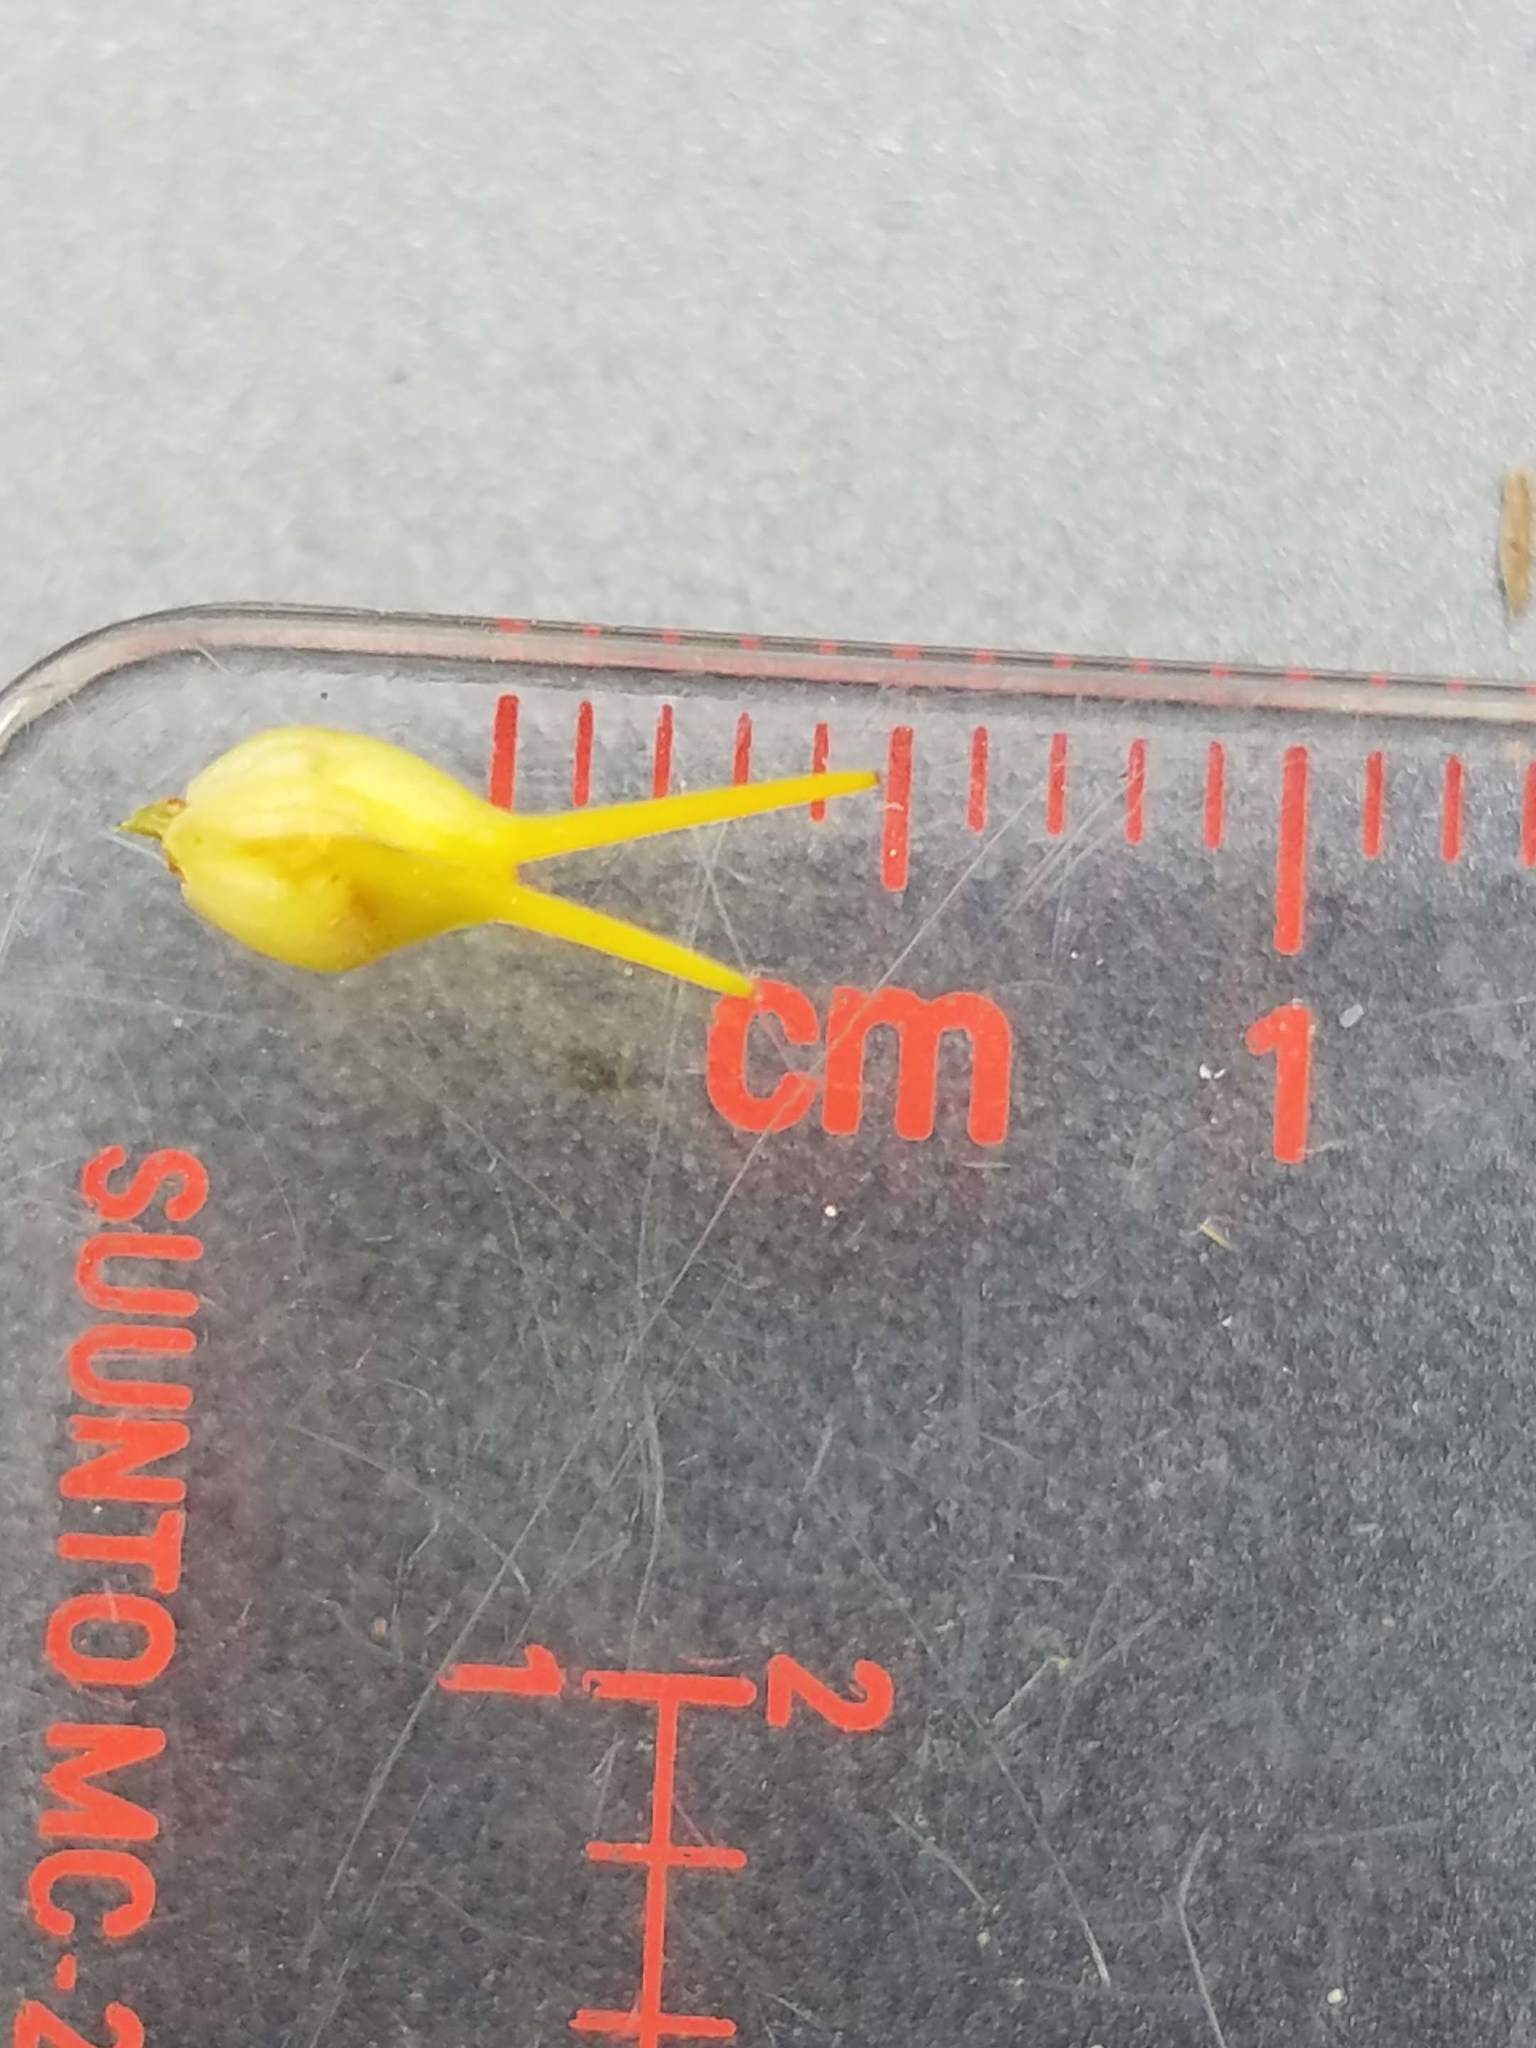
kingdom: Plantae
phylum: Tracheophyta
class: Magnoliopsida
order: Malpighiales
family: Hypericaceae
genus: Hypericum
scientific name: Hypericum punctatum
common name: Spotted st. john's-wort
